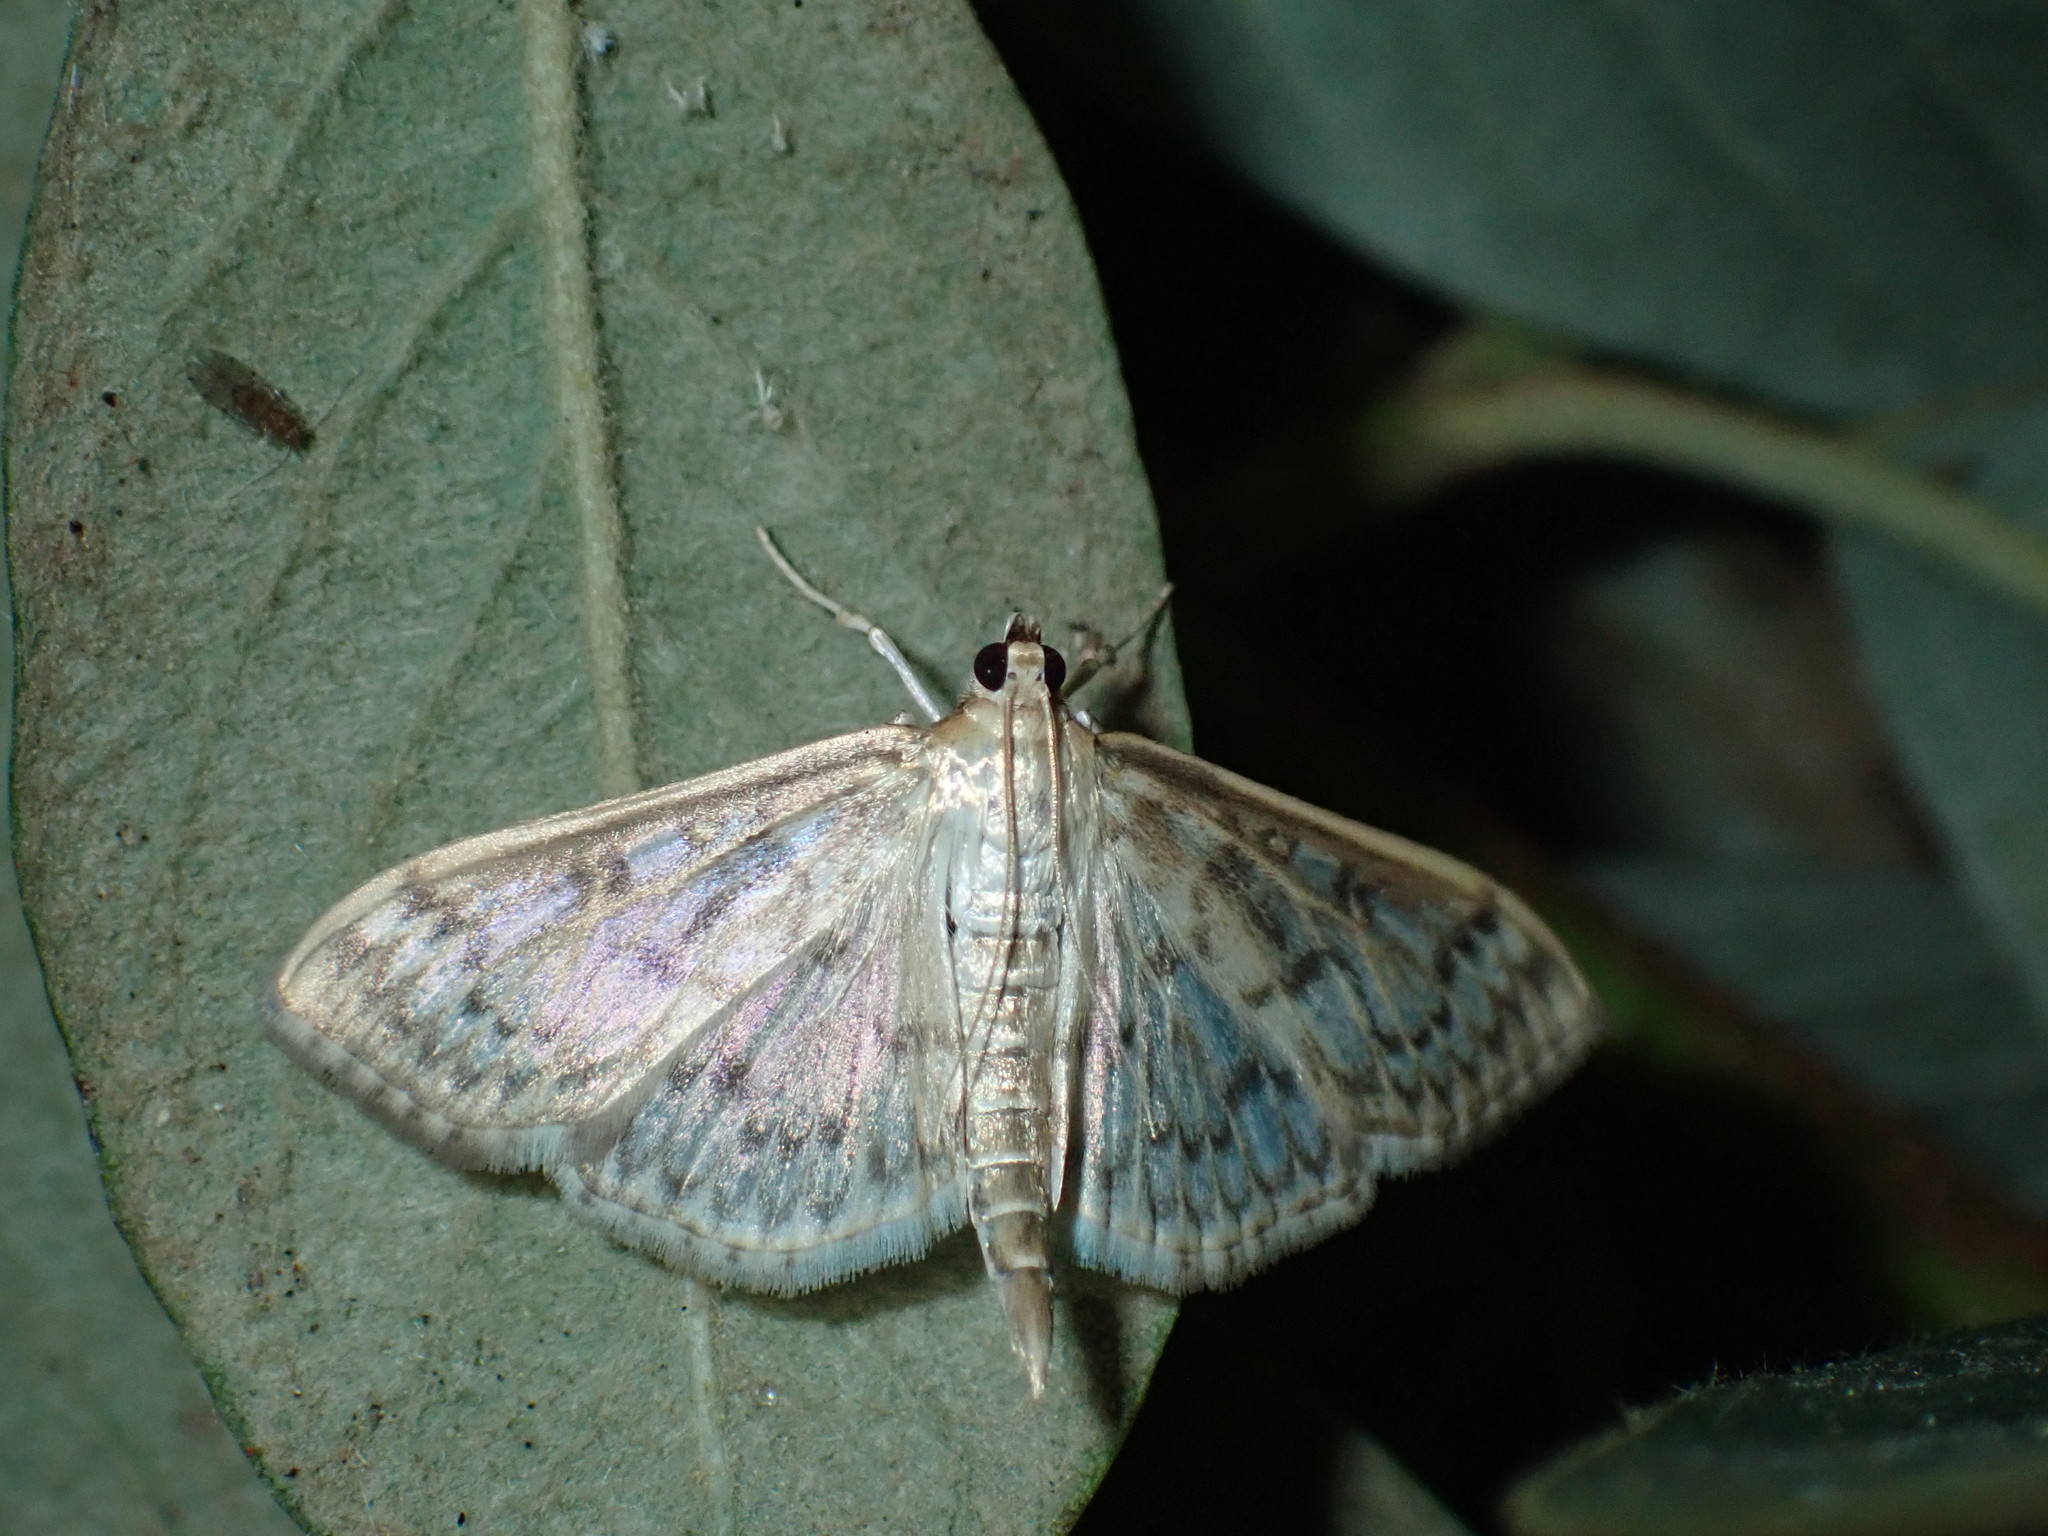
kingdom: Animalia
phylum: Arthropoda
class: Insecta
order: Lepidoptera
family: Crambidae
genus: Herpetogramma
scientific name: Herpetogramma aquilonalis
